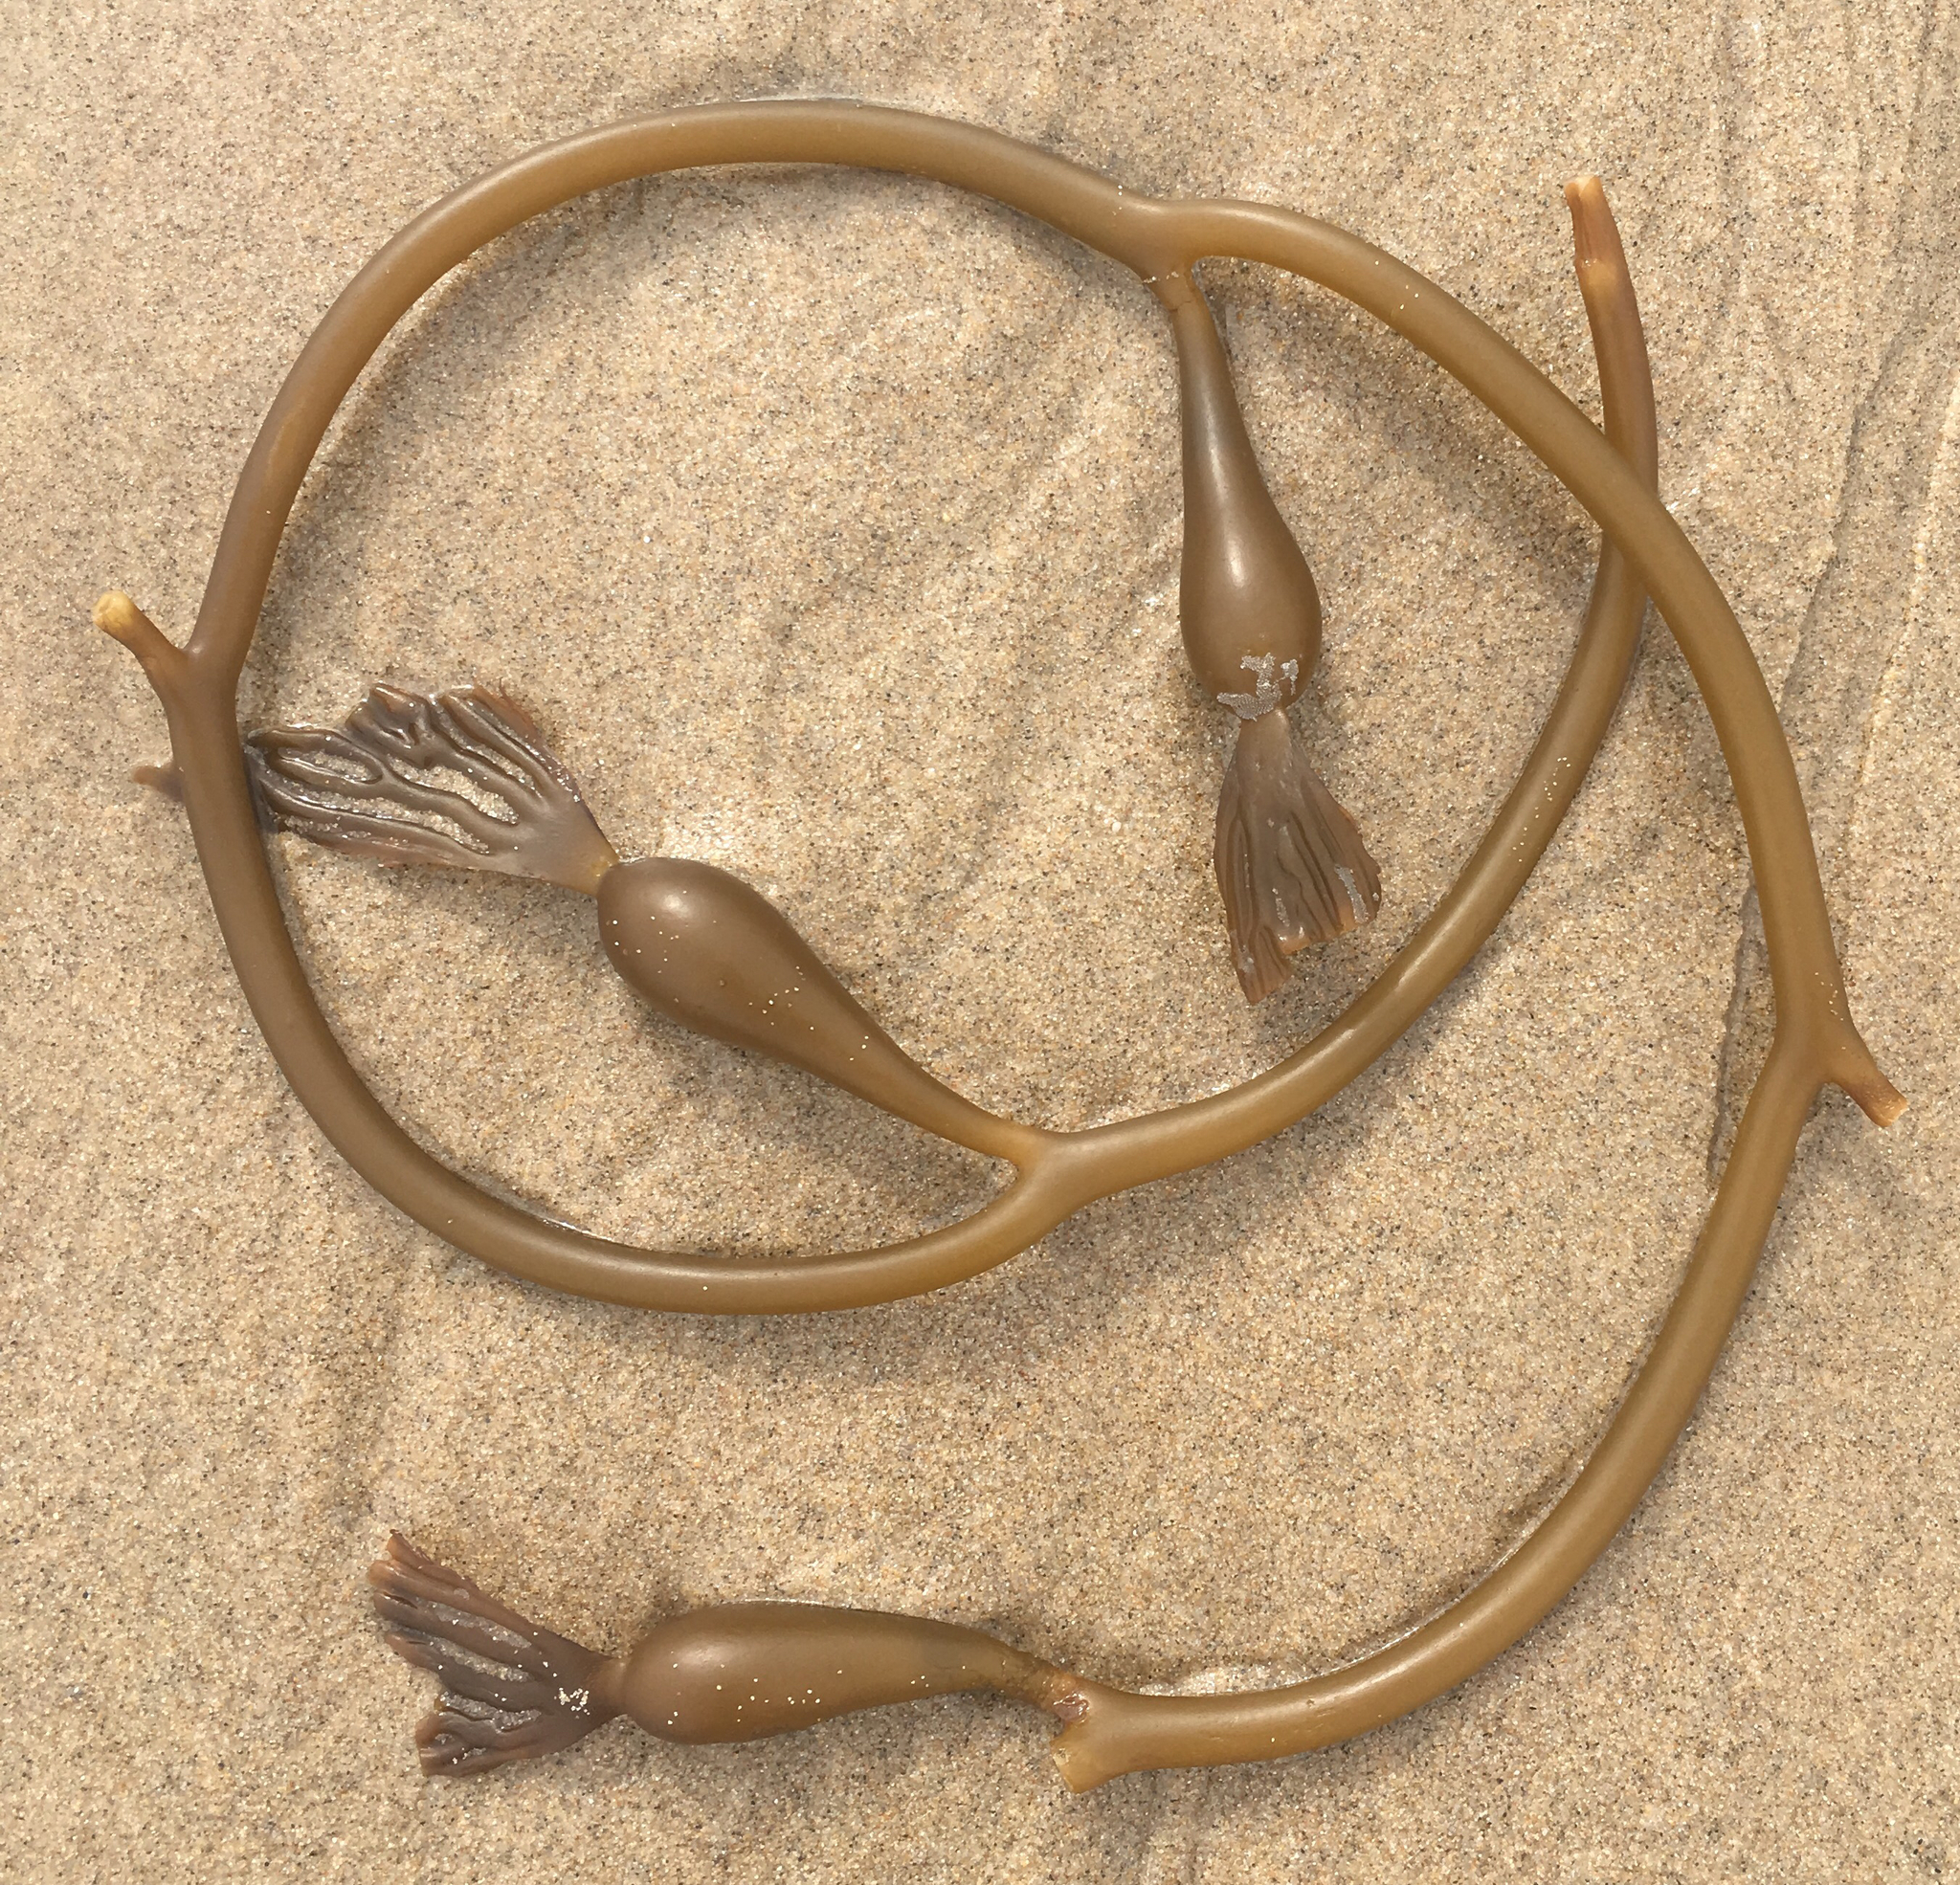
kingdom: Chromista
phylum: Ochrophyta
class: Phaeophyceae
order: Laminariales
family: Laminariaceae
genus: Macrocystis
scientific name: Macrocystis pyrifera
